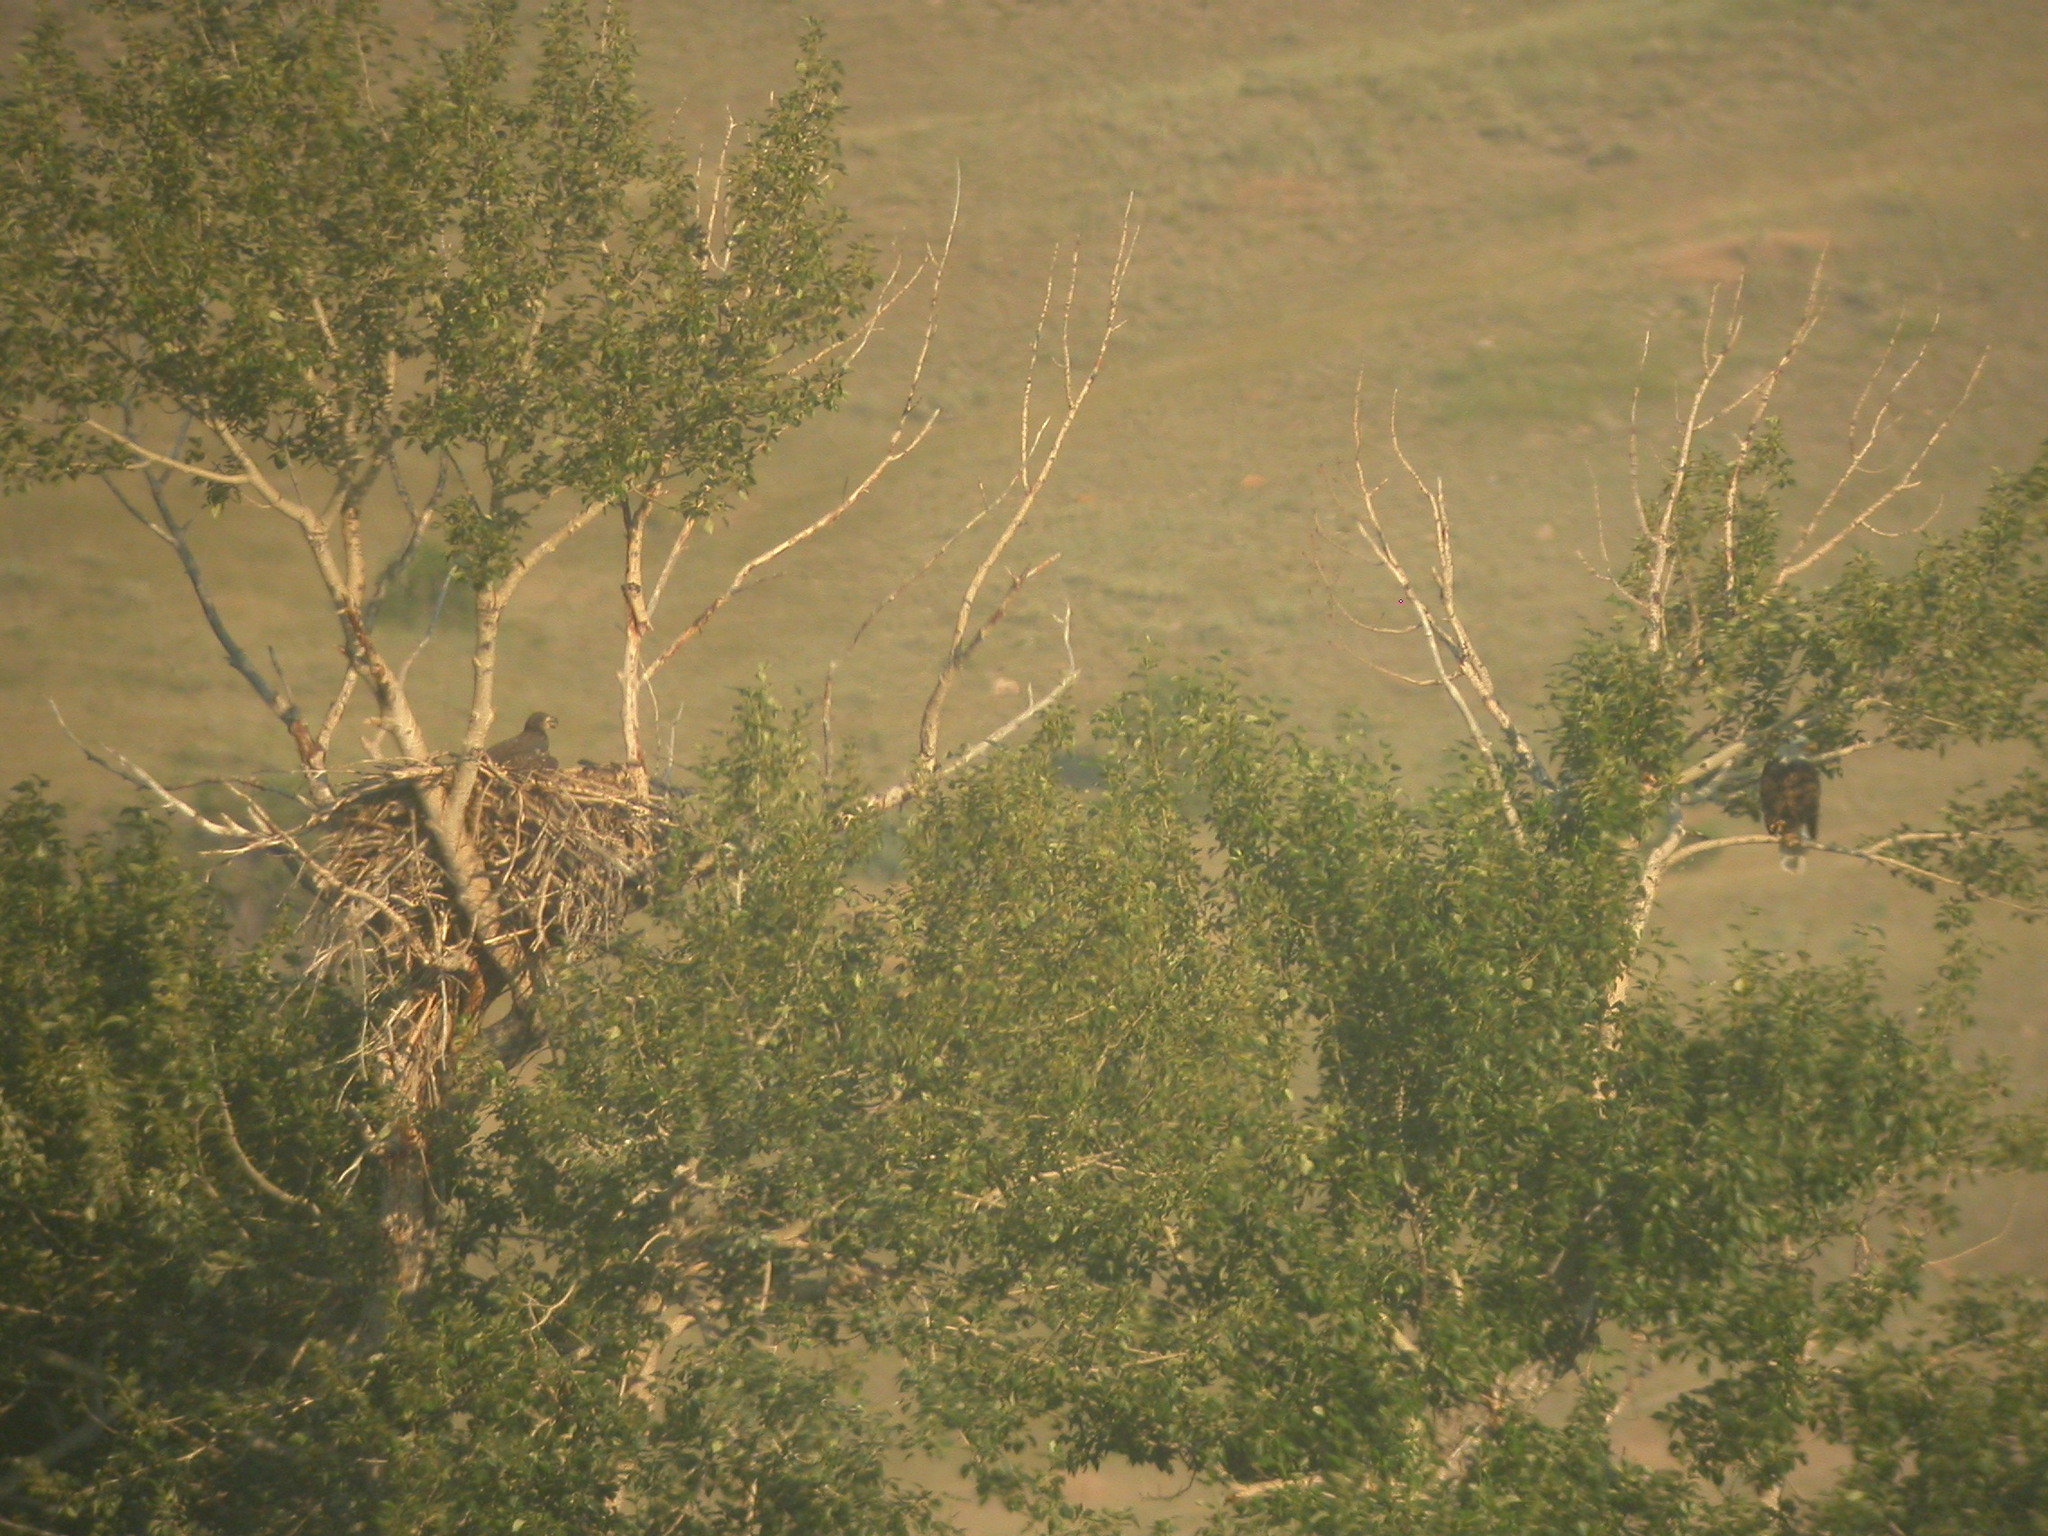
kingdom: Animalia
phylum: Chordata
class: Aves
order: Accipitriformes
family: Accipitridae
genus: Haliaeetus
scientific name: Haliaeetus leucocephalus
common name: Bald eagle
